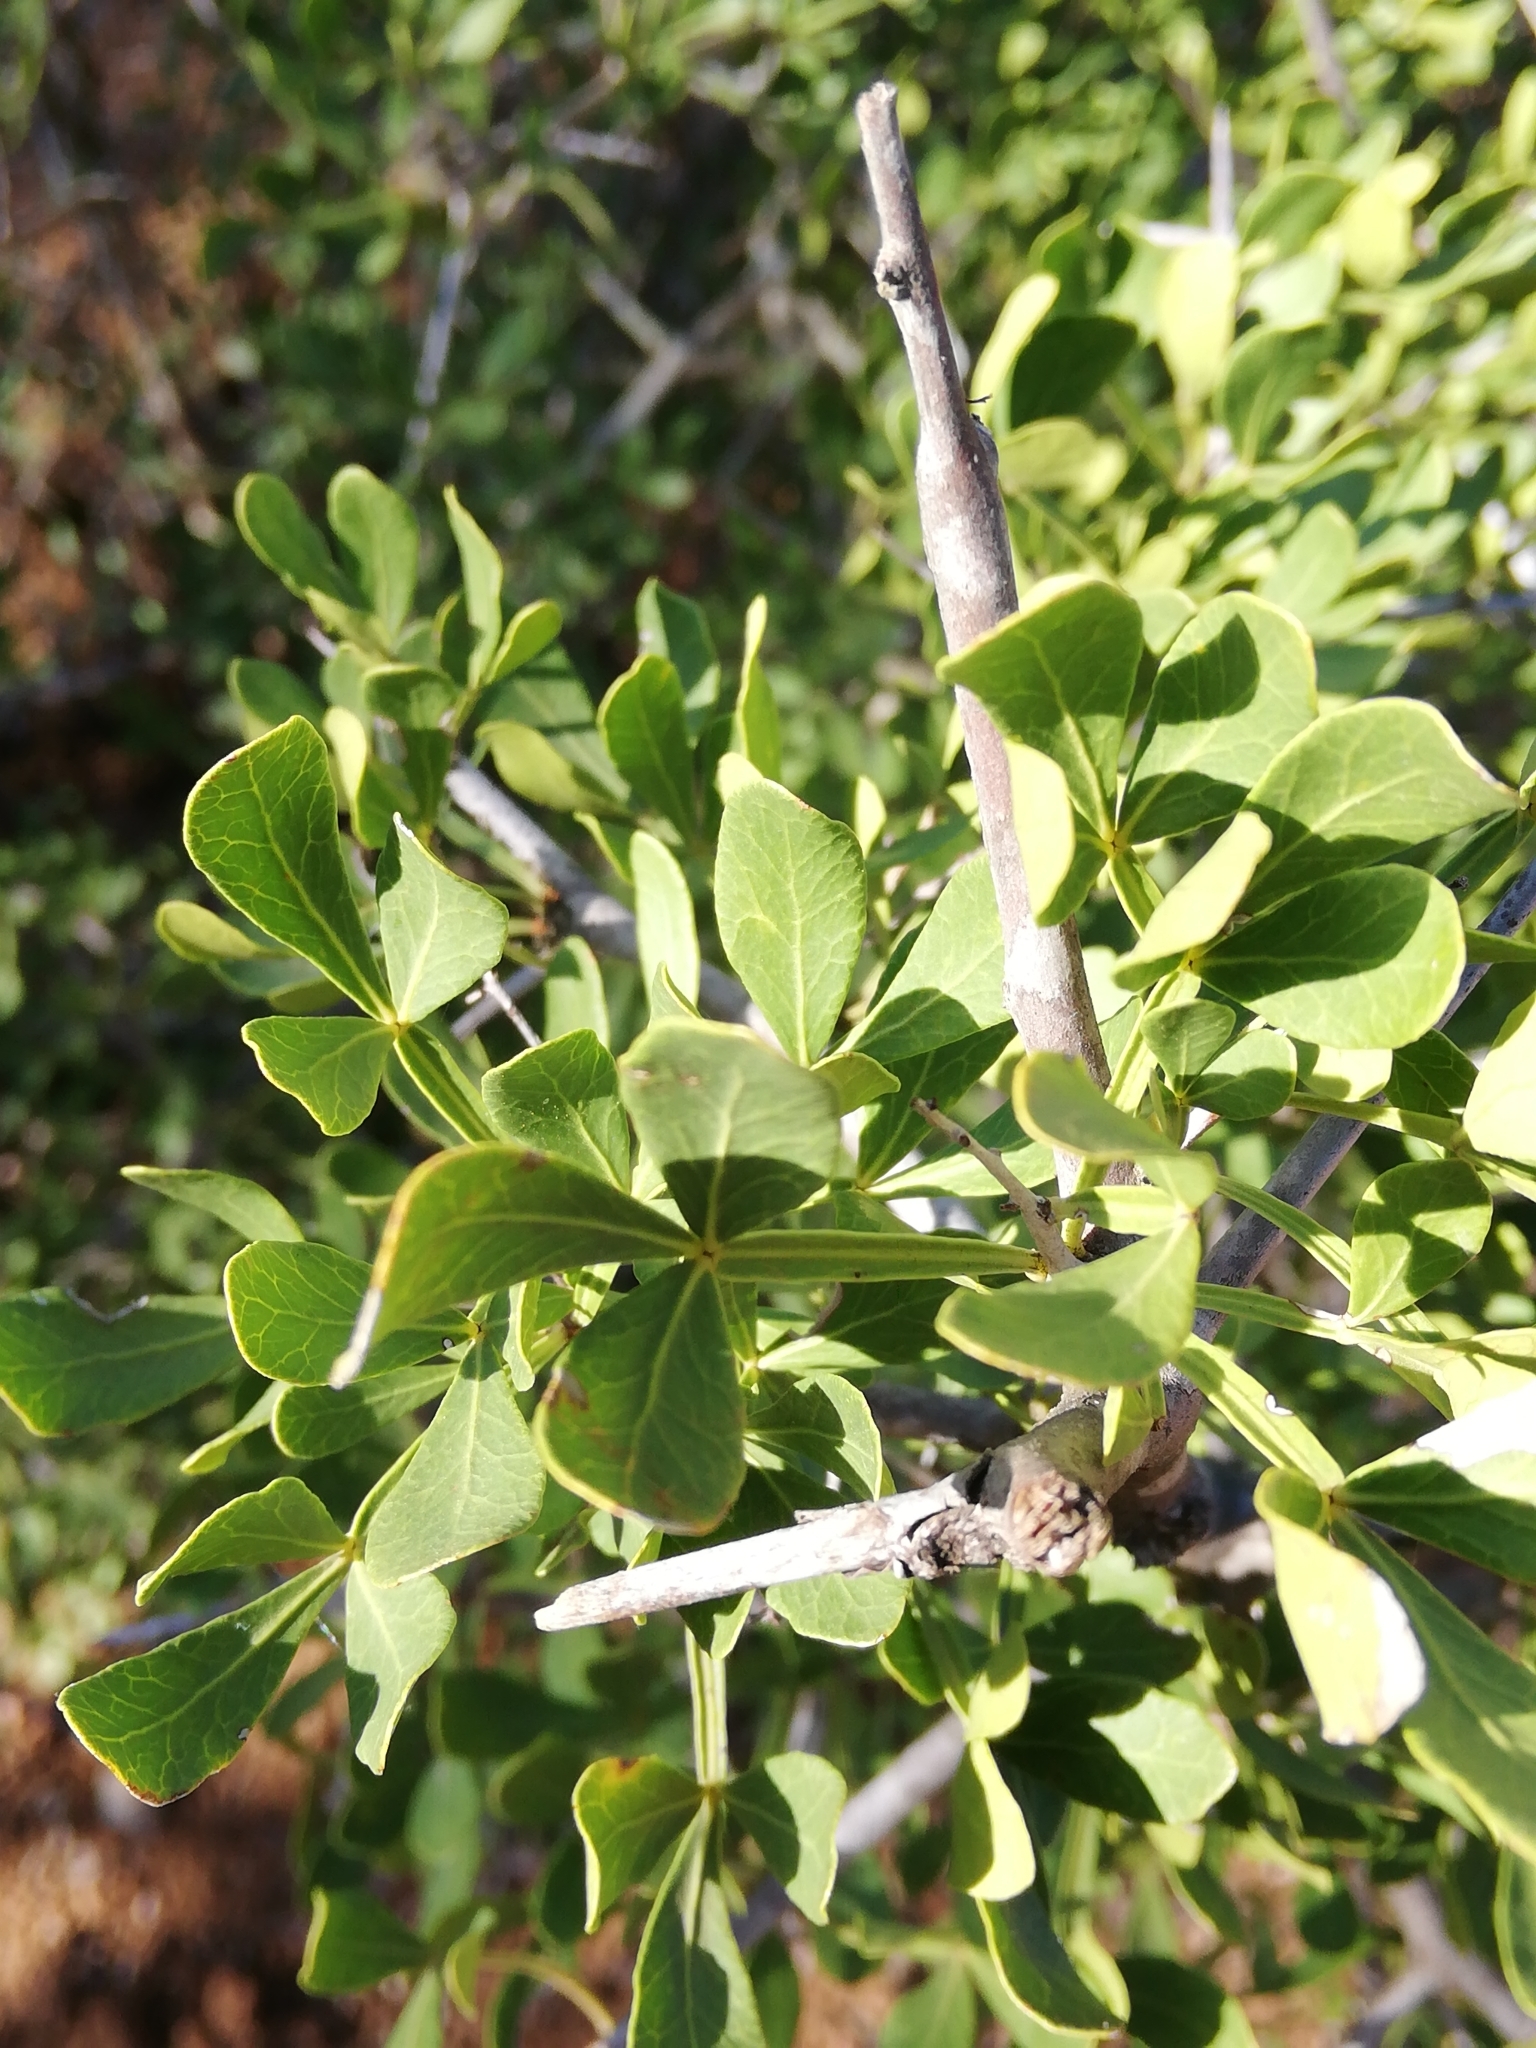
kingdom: Plantae
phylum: Tracheophyta
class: Magnoliopsida
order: Sapindales
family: Anacardiaceae
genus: Searsia
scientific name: Searsia pterota
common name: Winged currant
